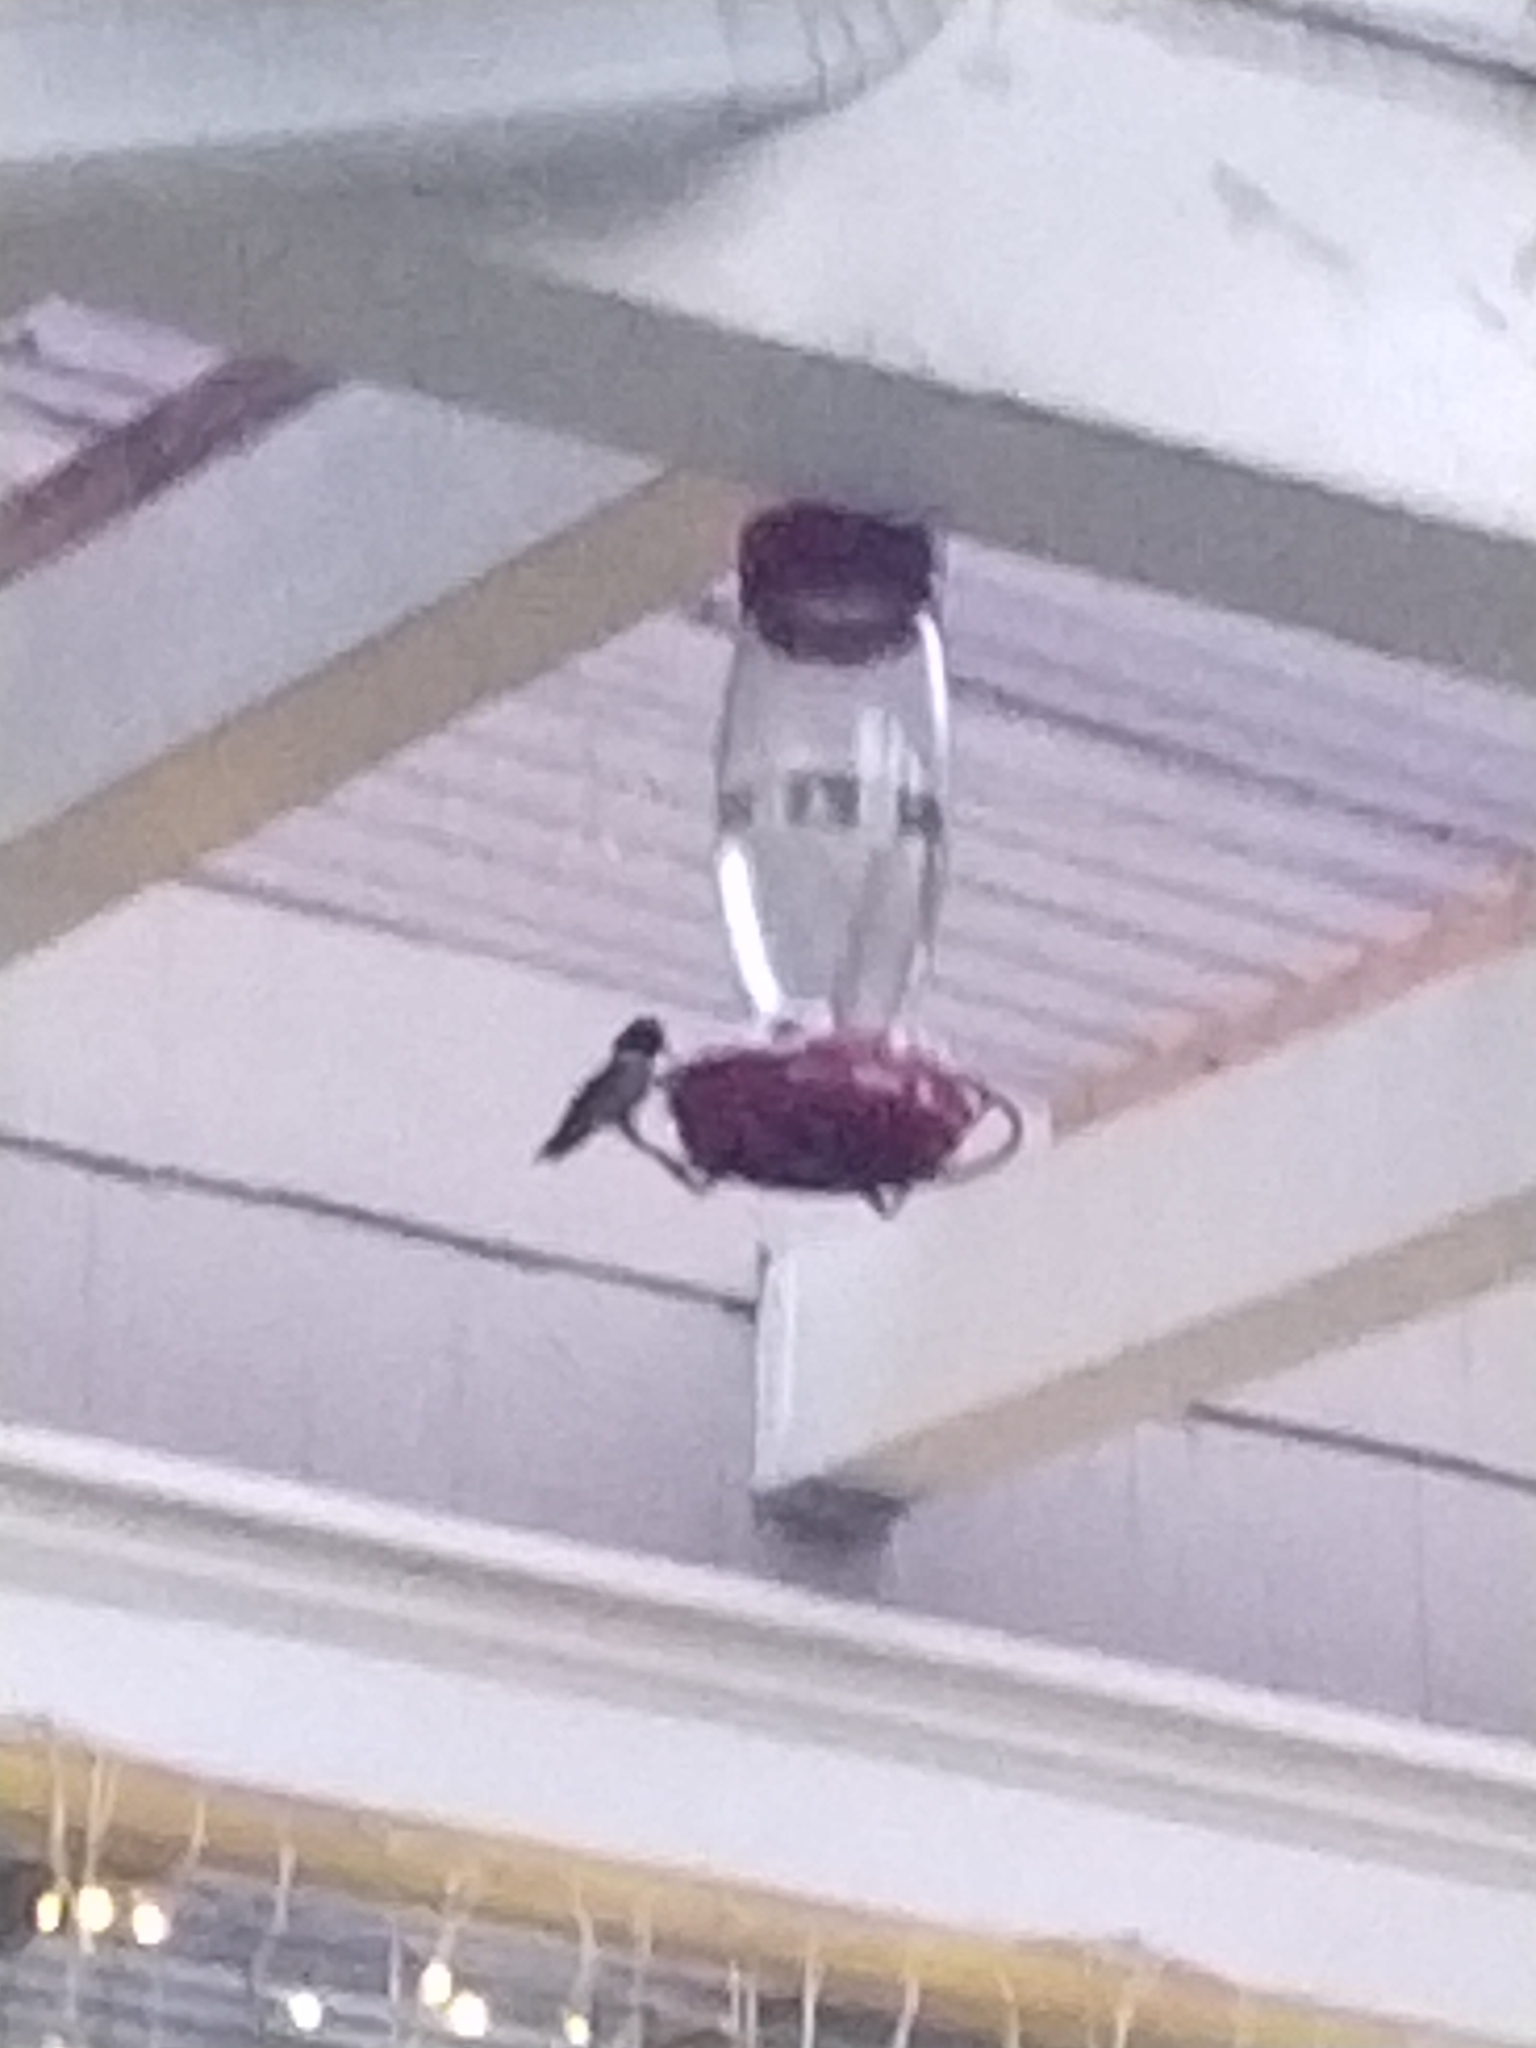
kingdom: Animalia
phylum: Chordata
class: Aves
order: Apodiformes
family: Trochilidae
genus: Calypte
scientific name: Calypte anna
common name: Anna's hummingbird
